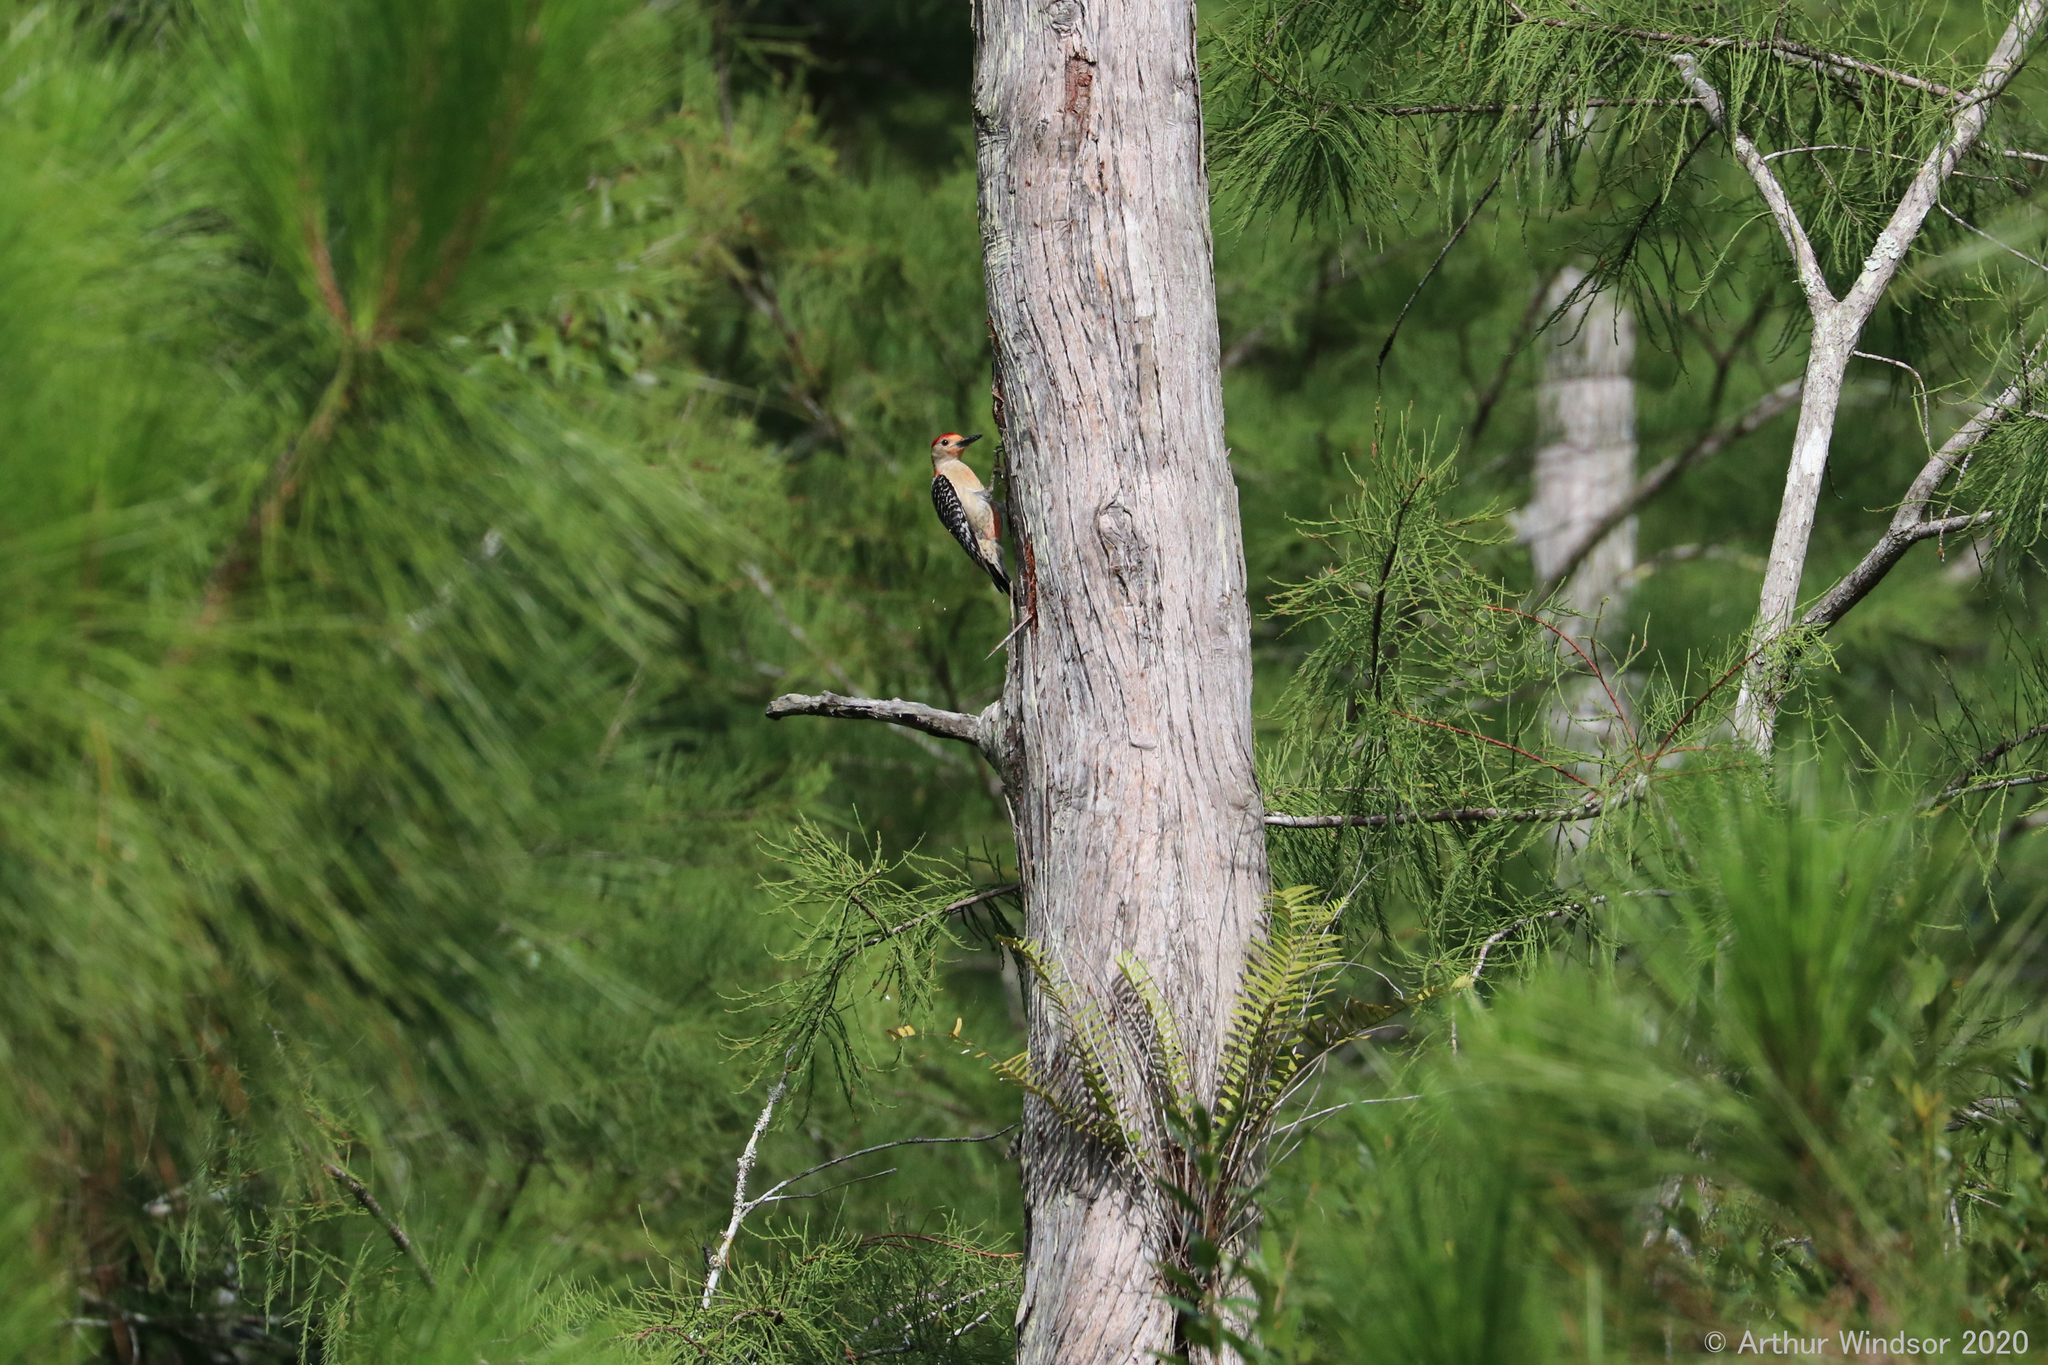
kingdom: Animalia
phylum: Chordata
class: Aves
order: Piciformes
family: Picidae
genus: Melanerpes
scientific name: Melanerpes carolinus
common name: Red-bellied woodpecker
